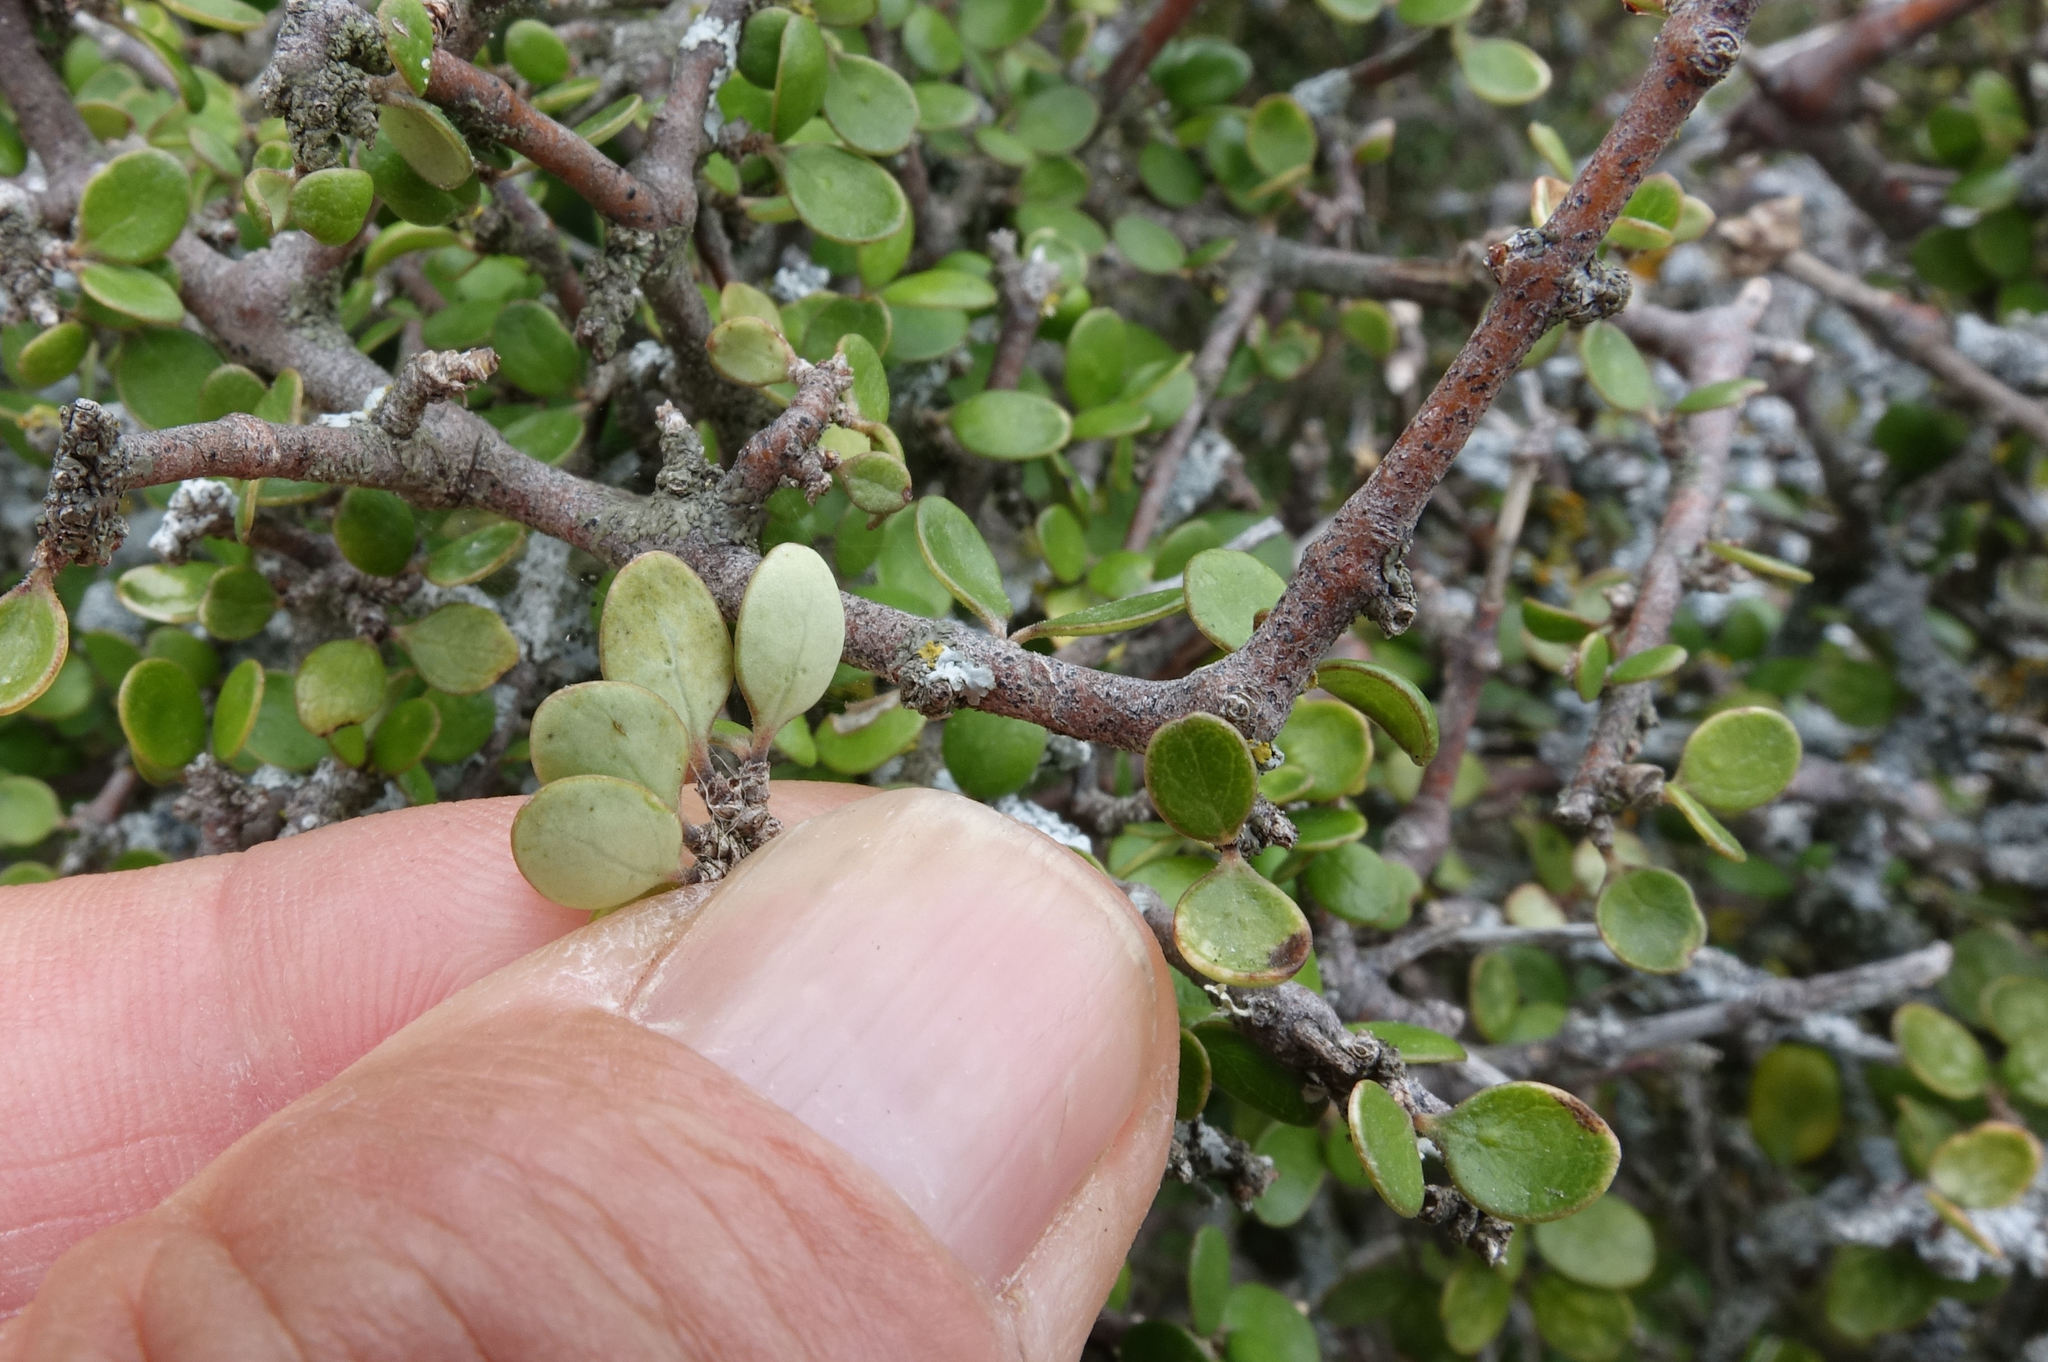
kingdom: Plantae
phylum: Tracheophyta
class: Magnoliopsida
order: Gentianales
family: Rubiaceae
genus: Coprosma
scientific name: Coprosma crassifolia
